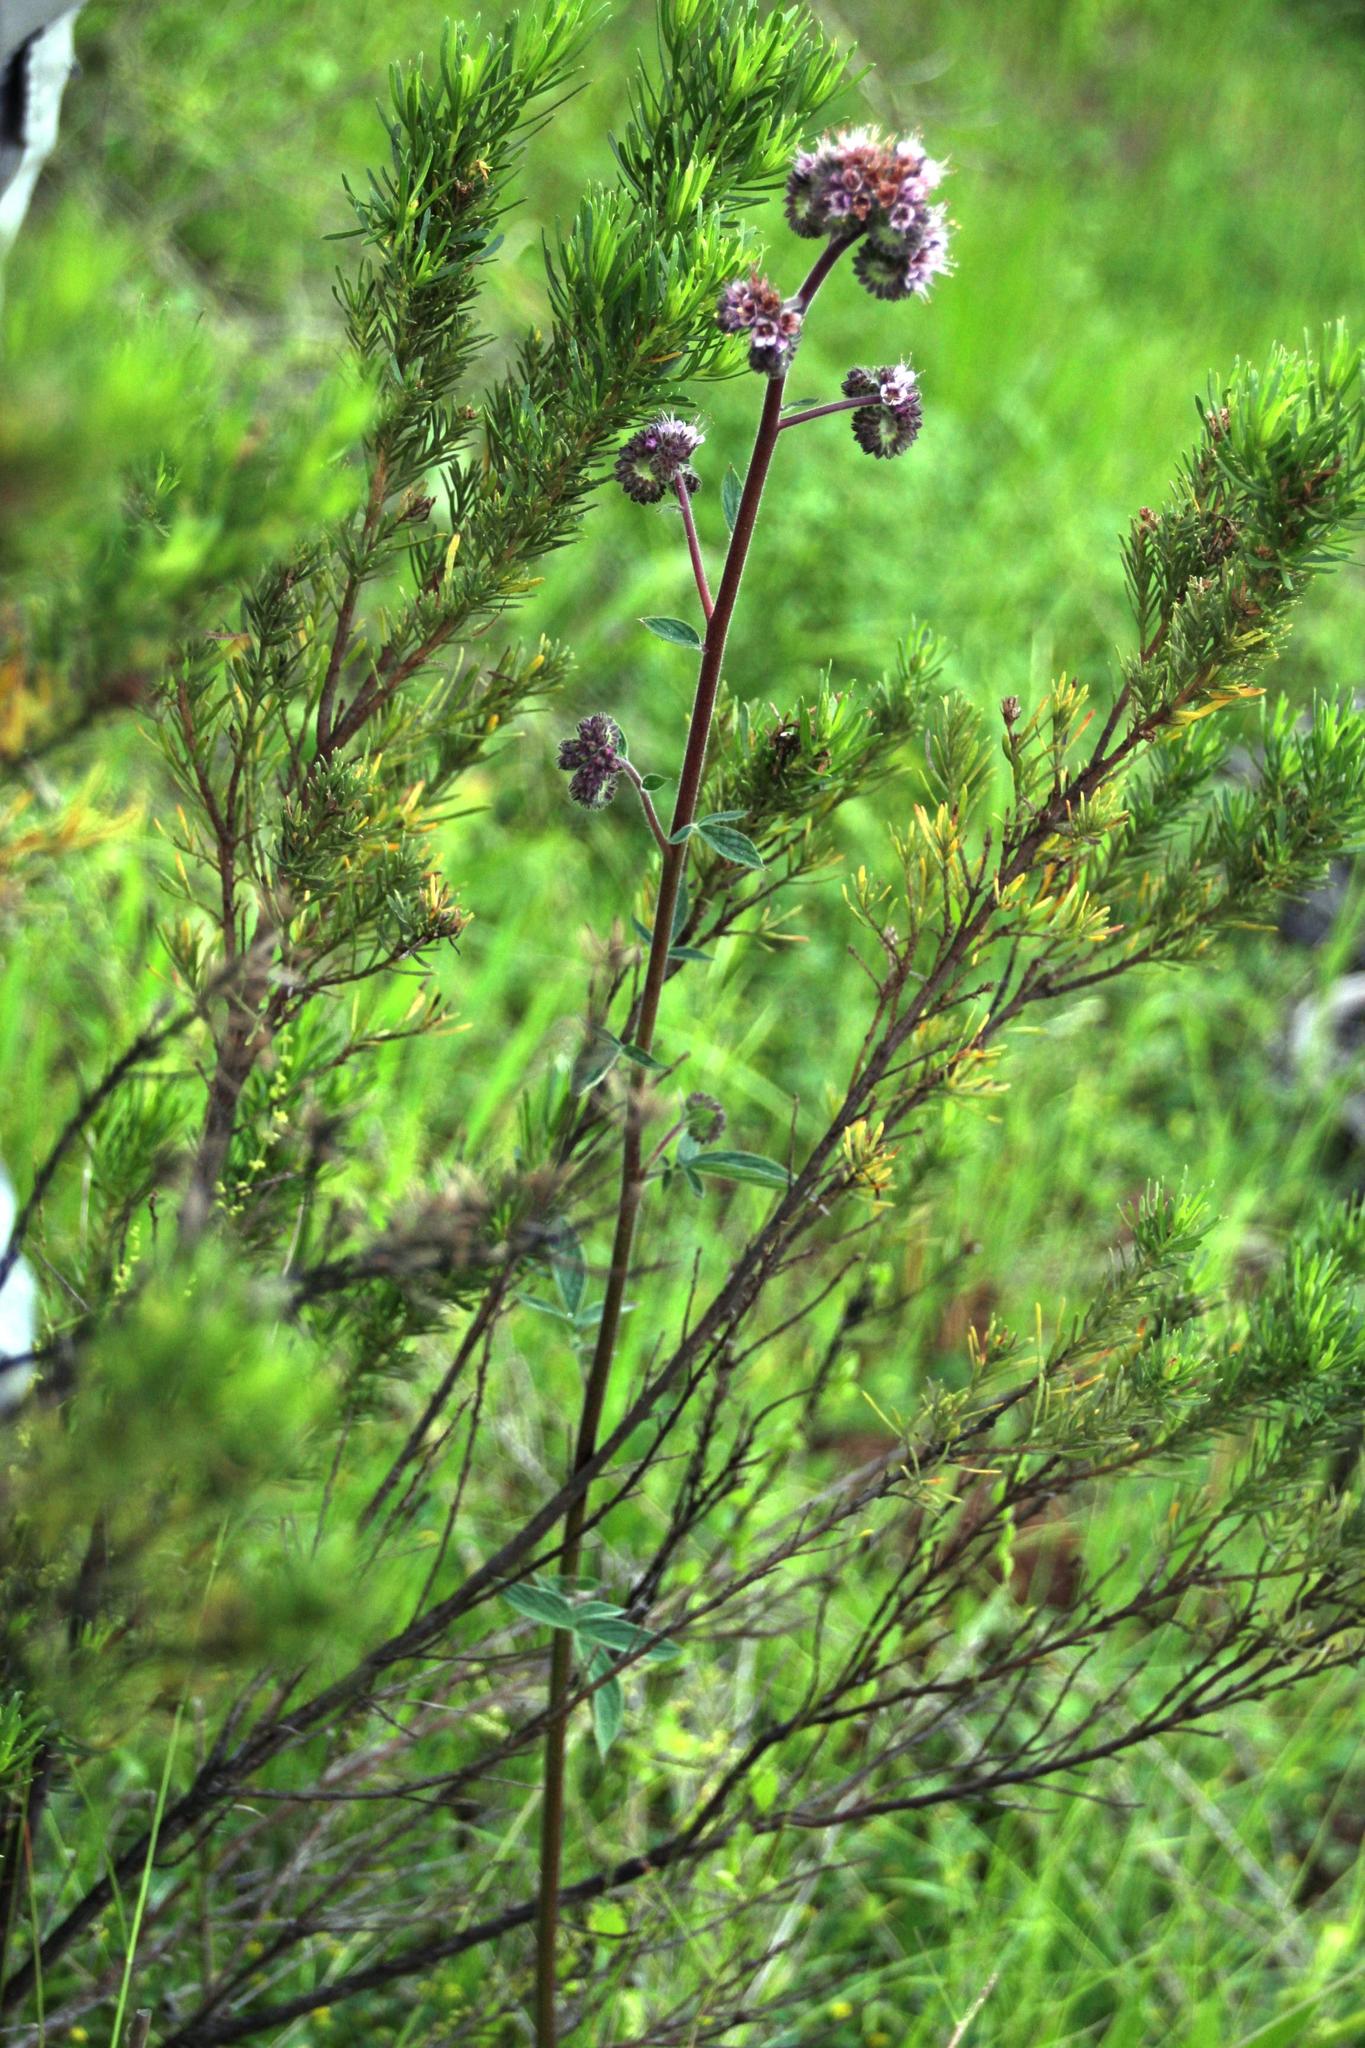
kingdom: Plantae
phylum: Tracheophyta
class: Magnoliopsida
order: Boraginales
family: Hydrophyllaceae
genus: Phacelia
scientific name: Phacelia secunda
